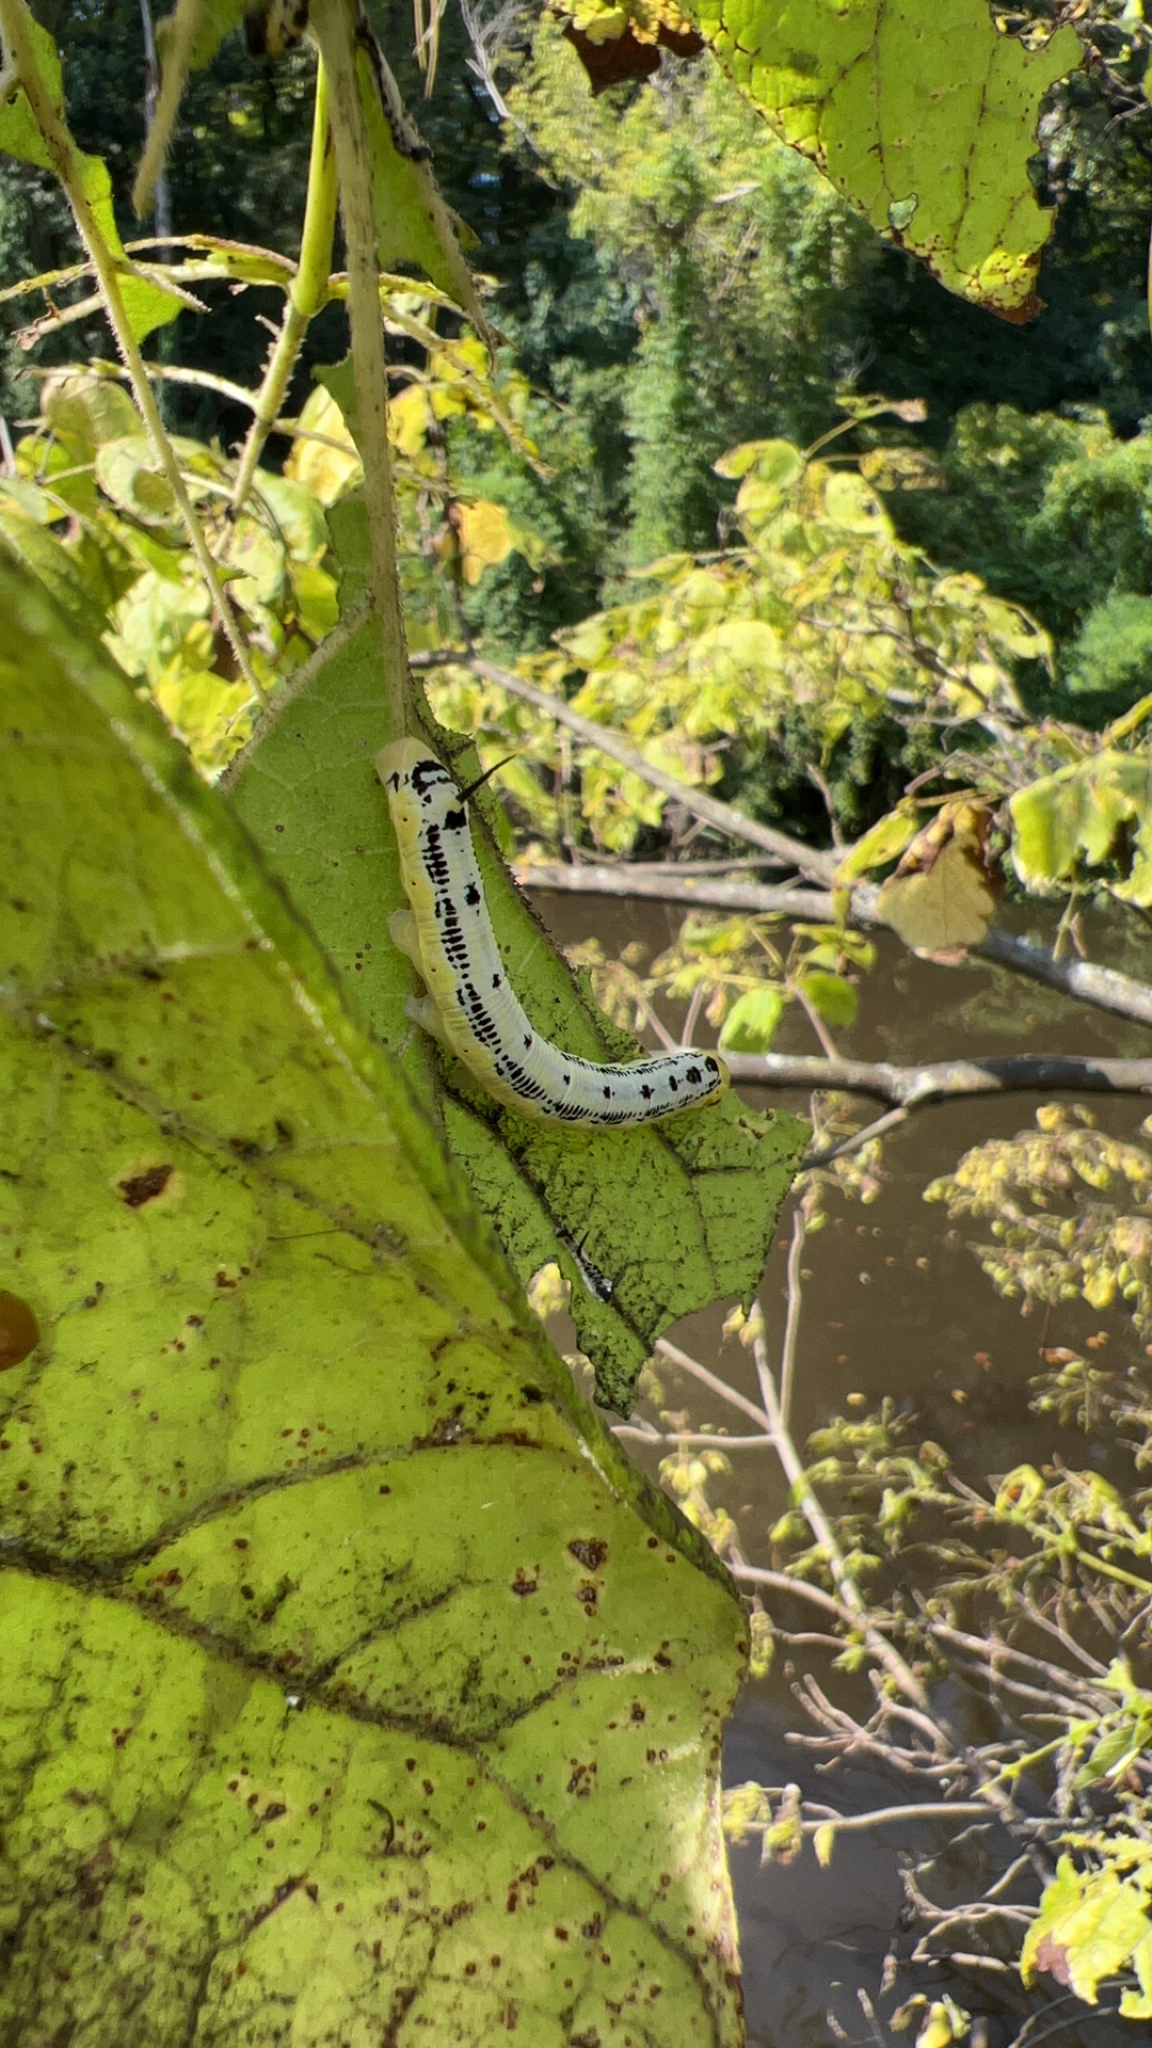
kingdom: Animalia
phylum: Arthropoda
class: Insecta
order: Lepidoptera
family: Sphingidae
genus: Ceratomia
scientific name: Ceratomia catalpae
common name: Catalpa hornworm
